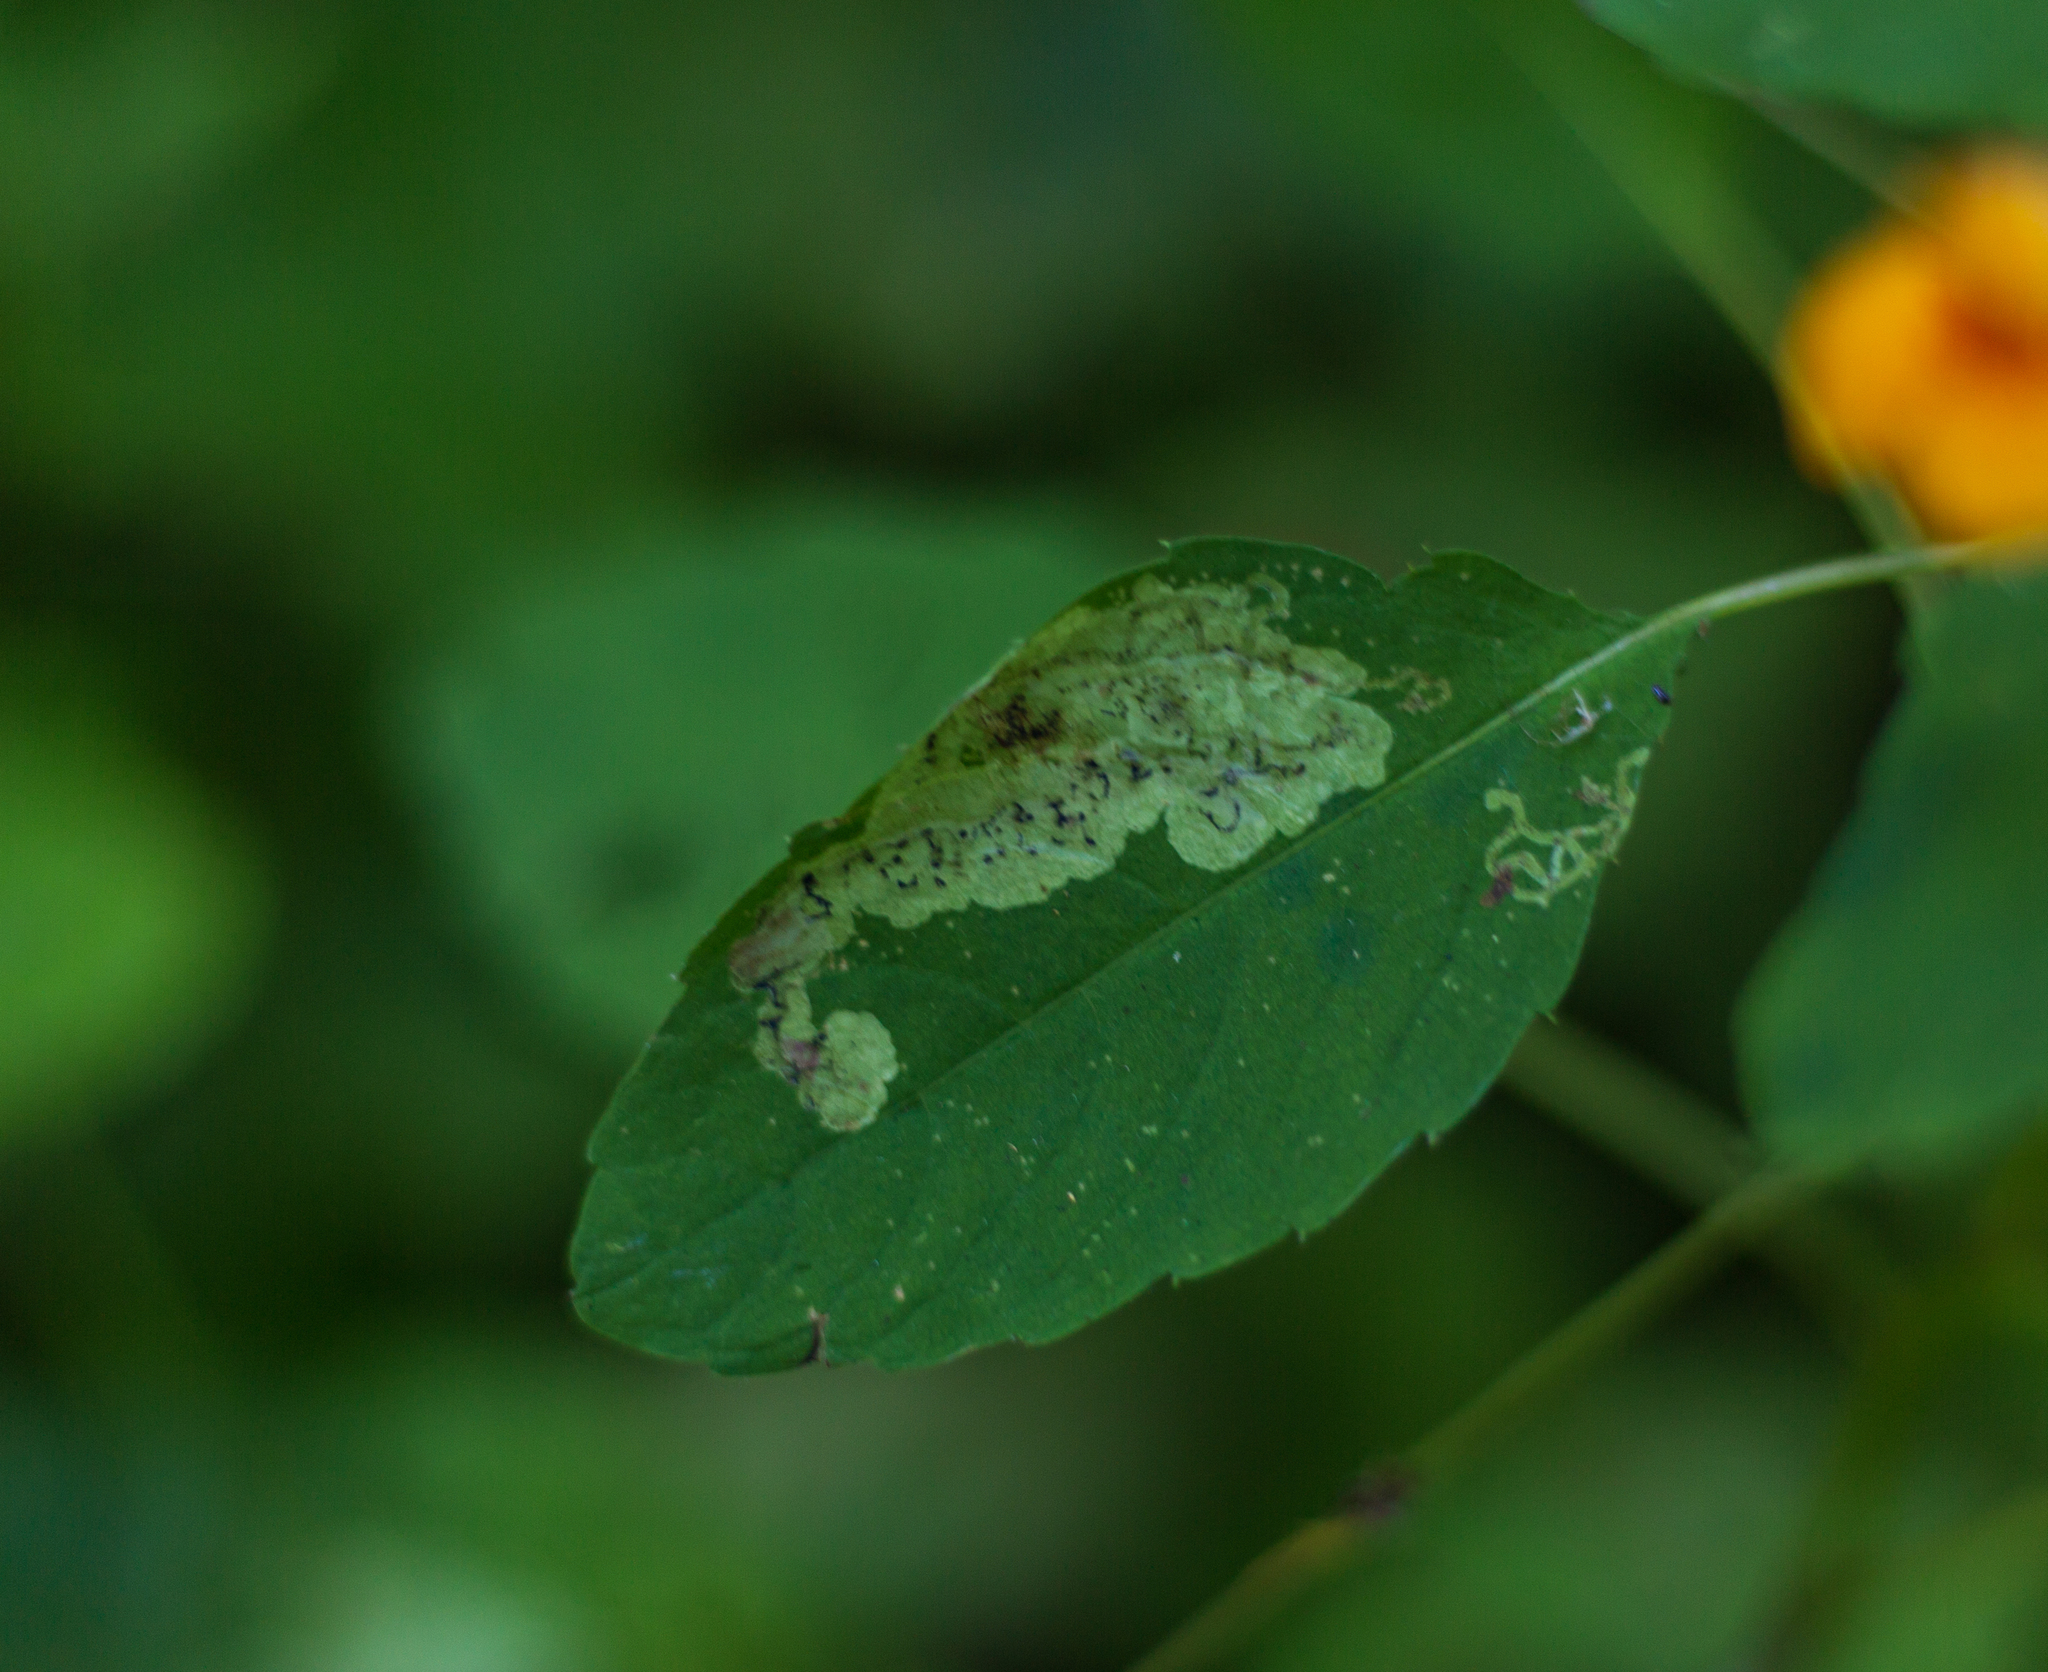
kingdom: Animalia
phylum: Arthropoda
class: Insecta
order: Diptera
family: Agromyzidae
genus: Phytoliriomyza
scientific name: Phytoliriomyza melampyga
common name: Jewelweed leaf-miner fly
